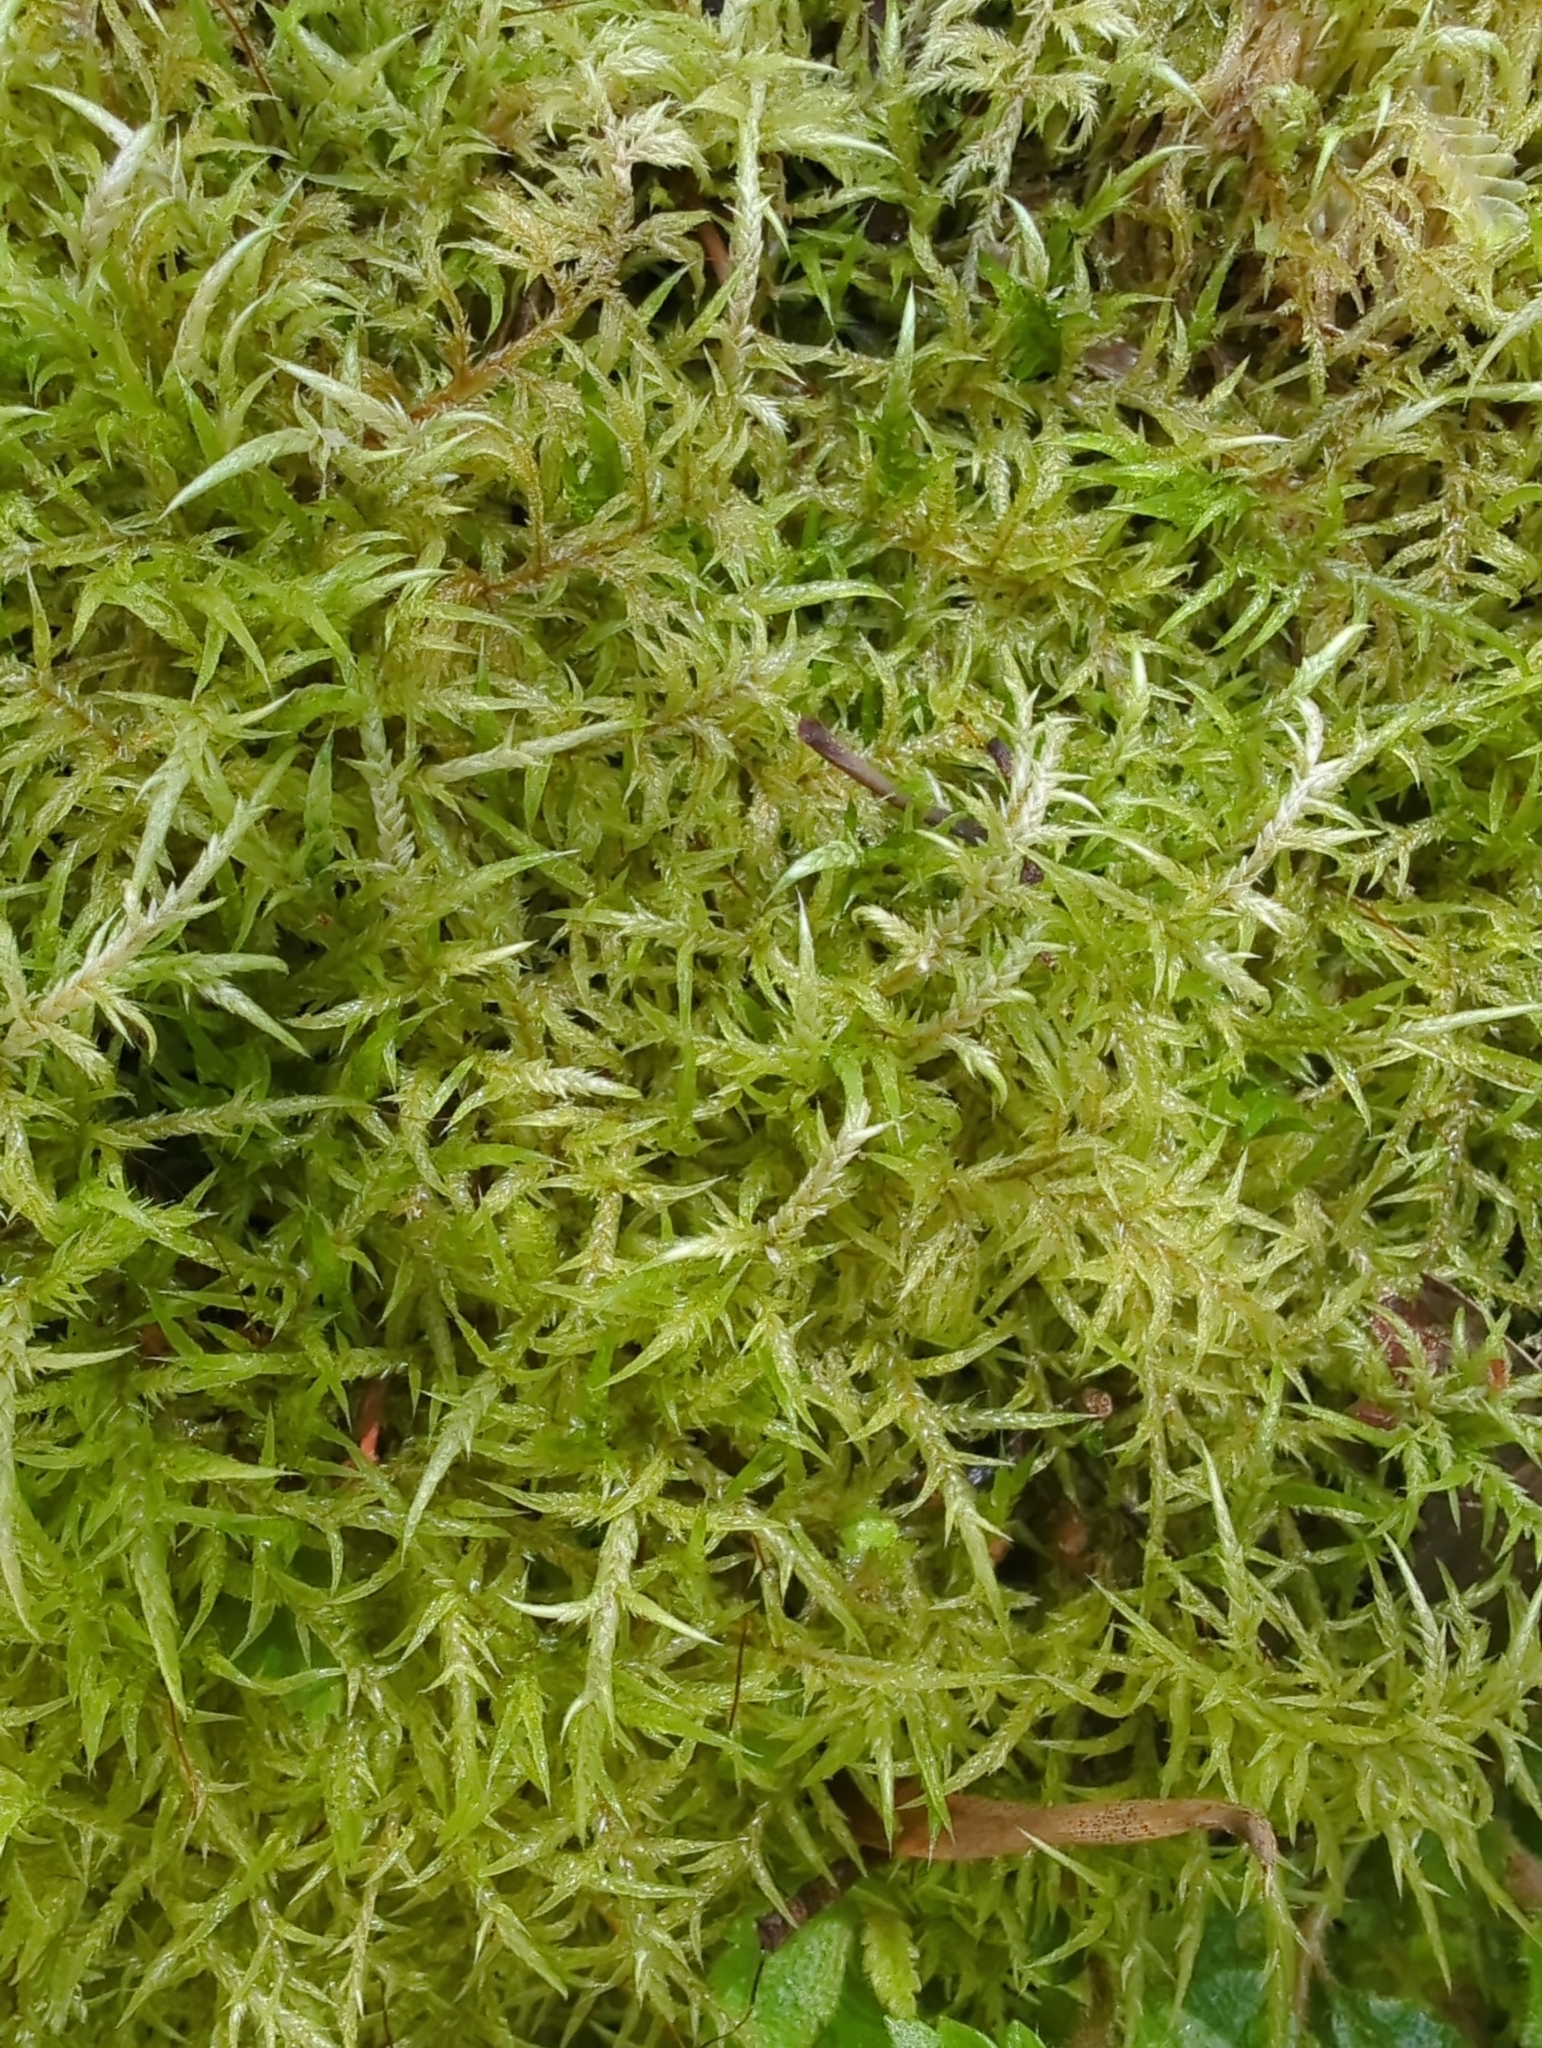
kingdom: Plantae
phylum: Bryophyta
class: Bryopsida
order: Hypnales
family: Pylaisiadelphaceae
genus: Wijkia
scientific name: Wijkia extenuata
